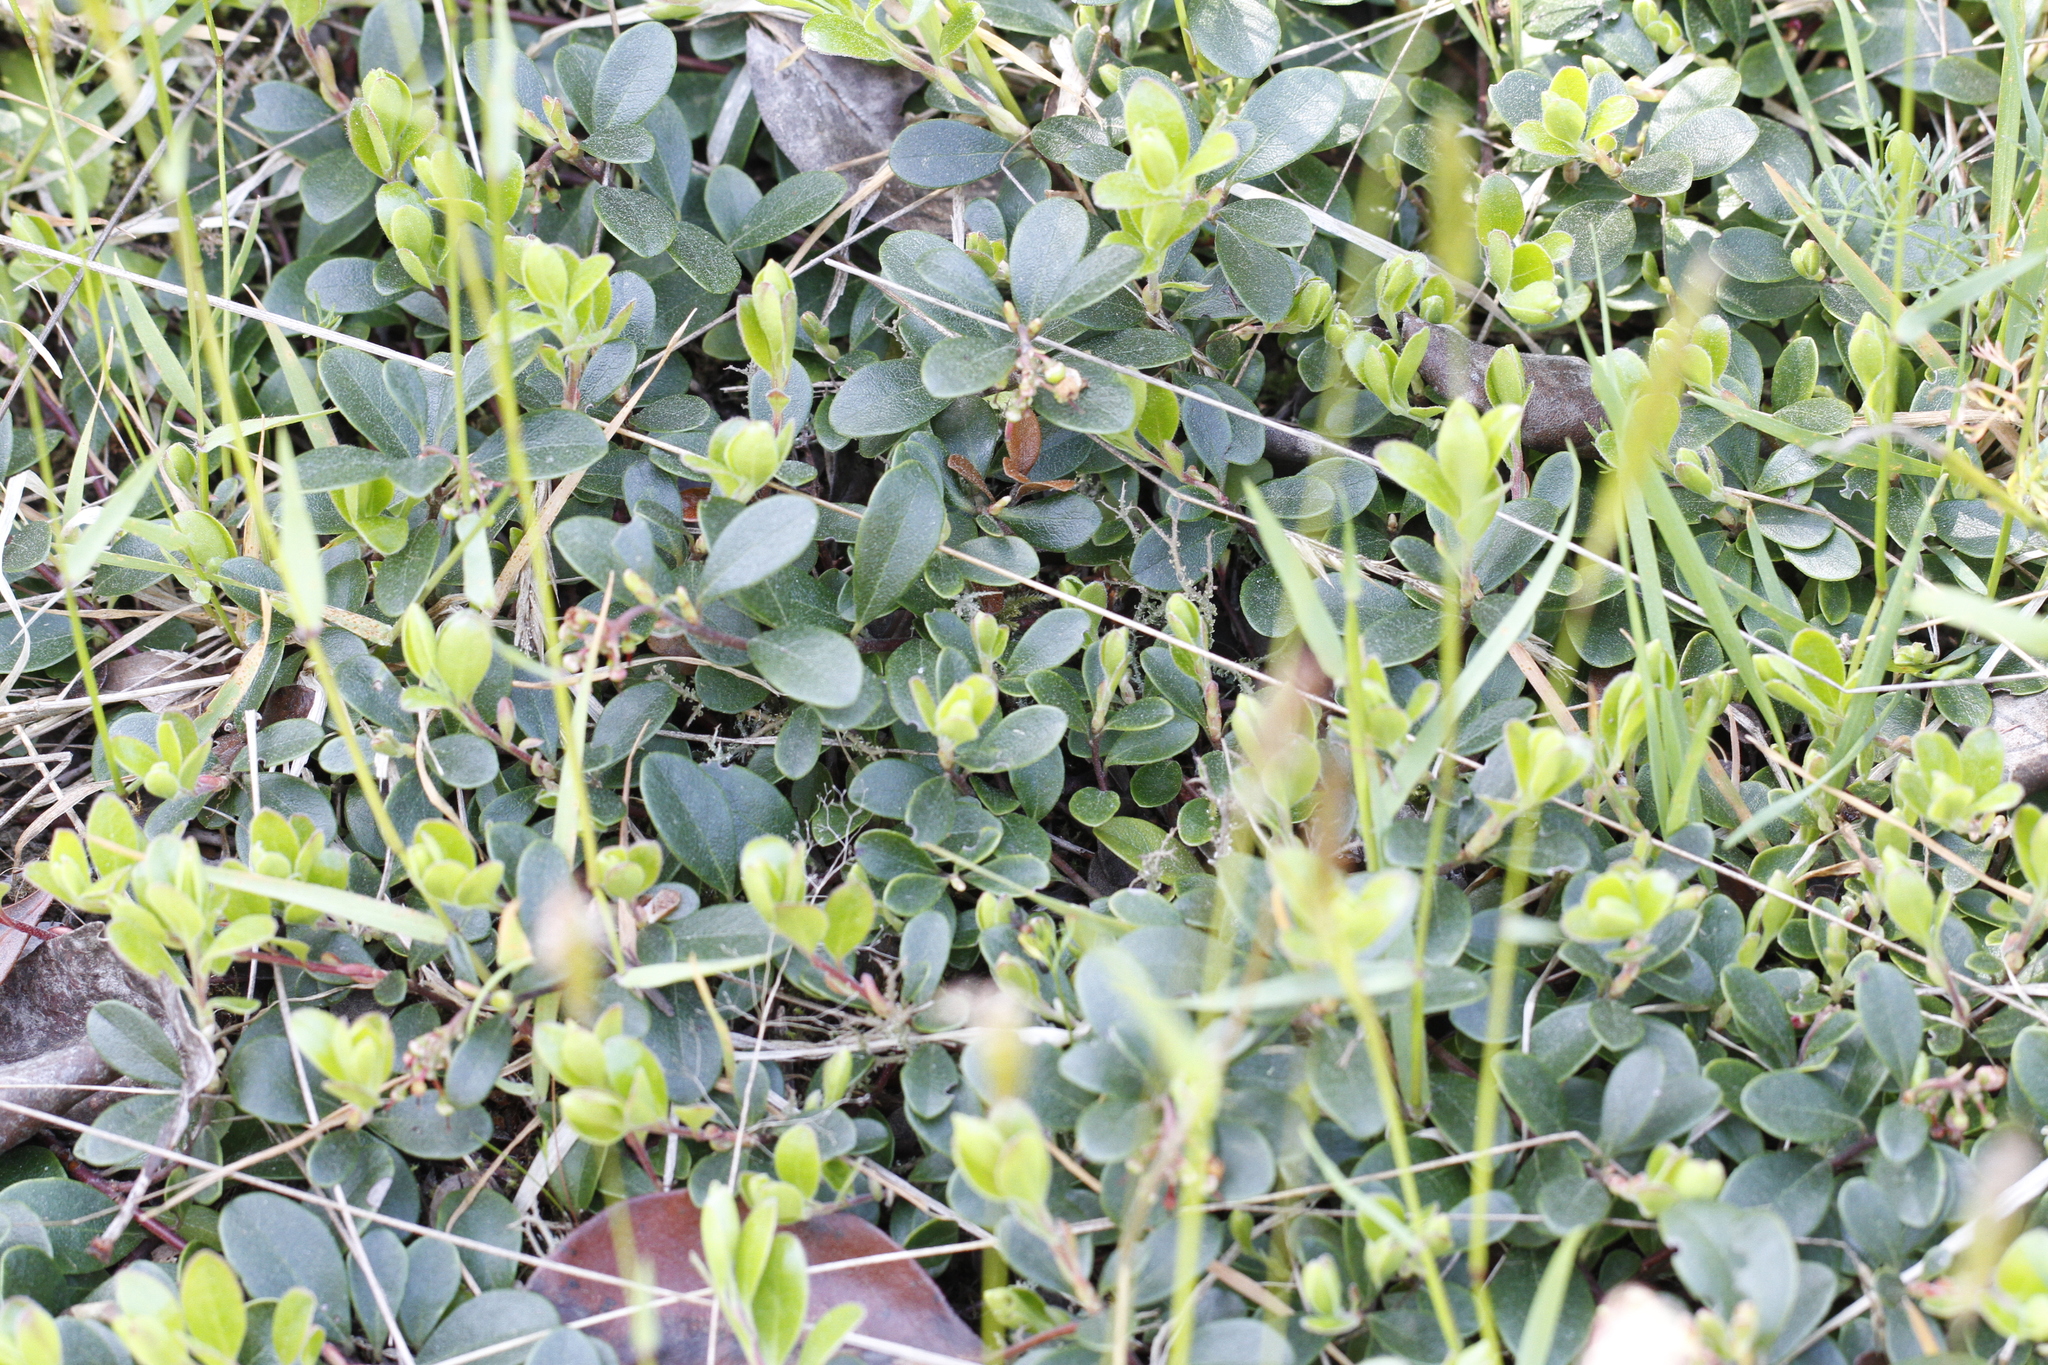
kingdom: Plantae
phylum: Tracheophyta
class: Magnoliopsida
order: Ericales
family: Ericaceae
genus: Arctostaphylos
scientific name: Arctostaphylos uva-ursi
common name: Bearberry
